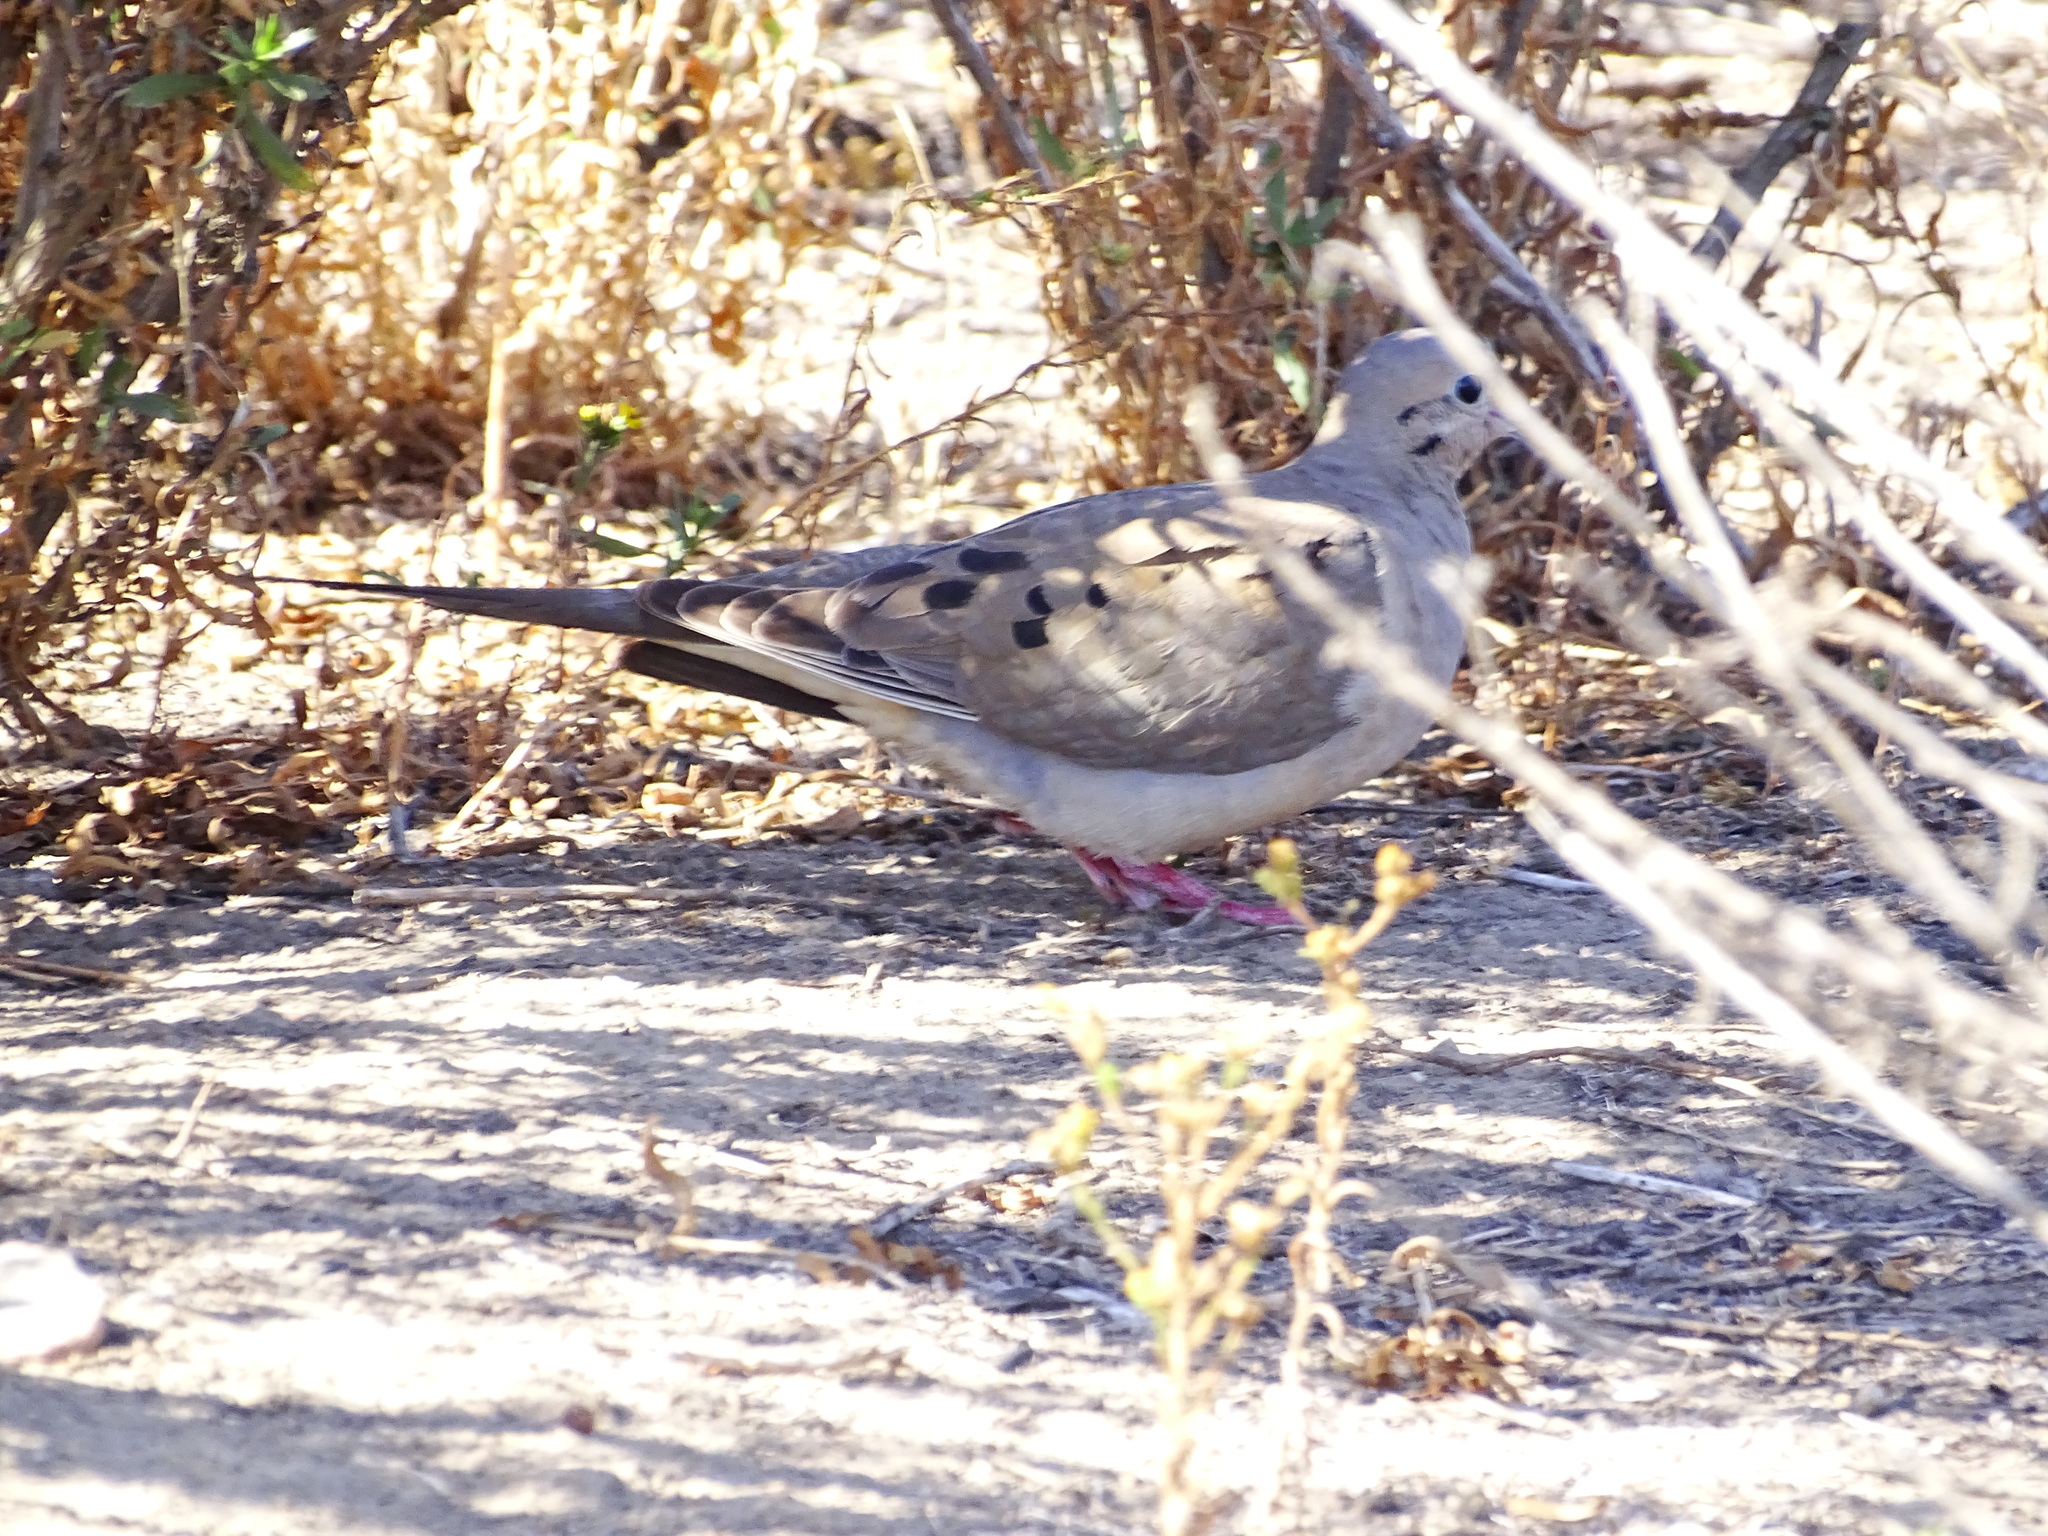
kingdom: Animalia
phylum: Chordata
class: Aves
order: Columbiformes
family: Columbidae
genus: Zenaida
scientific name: Zenaida macroura
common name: Mourning dove
